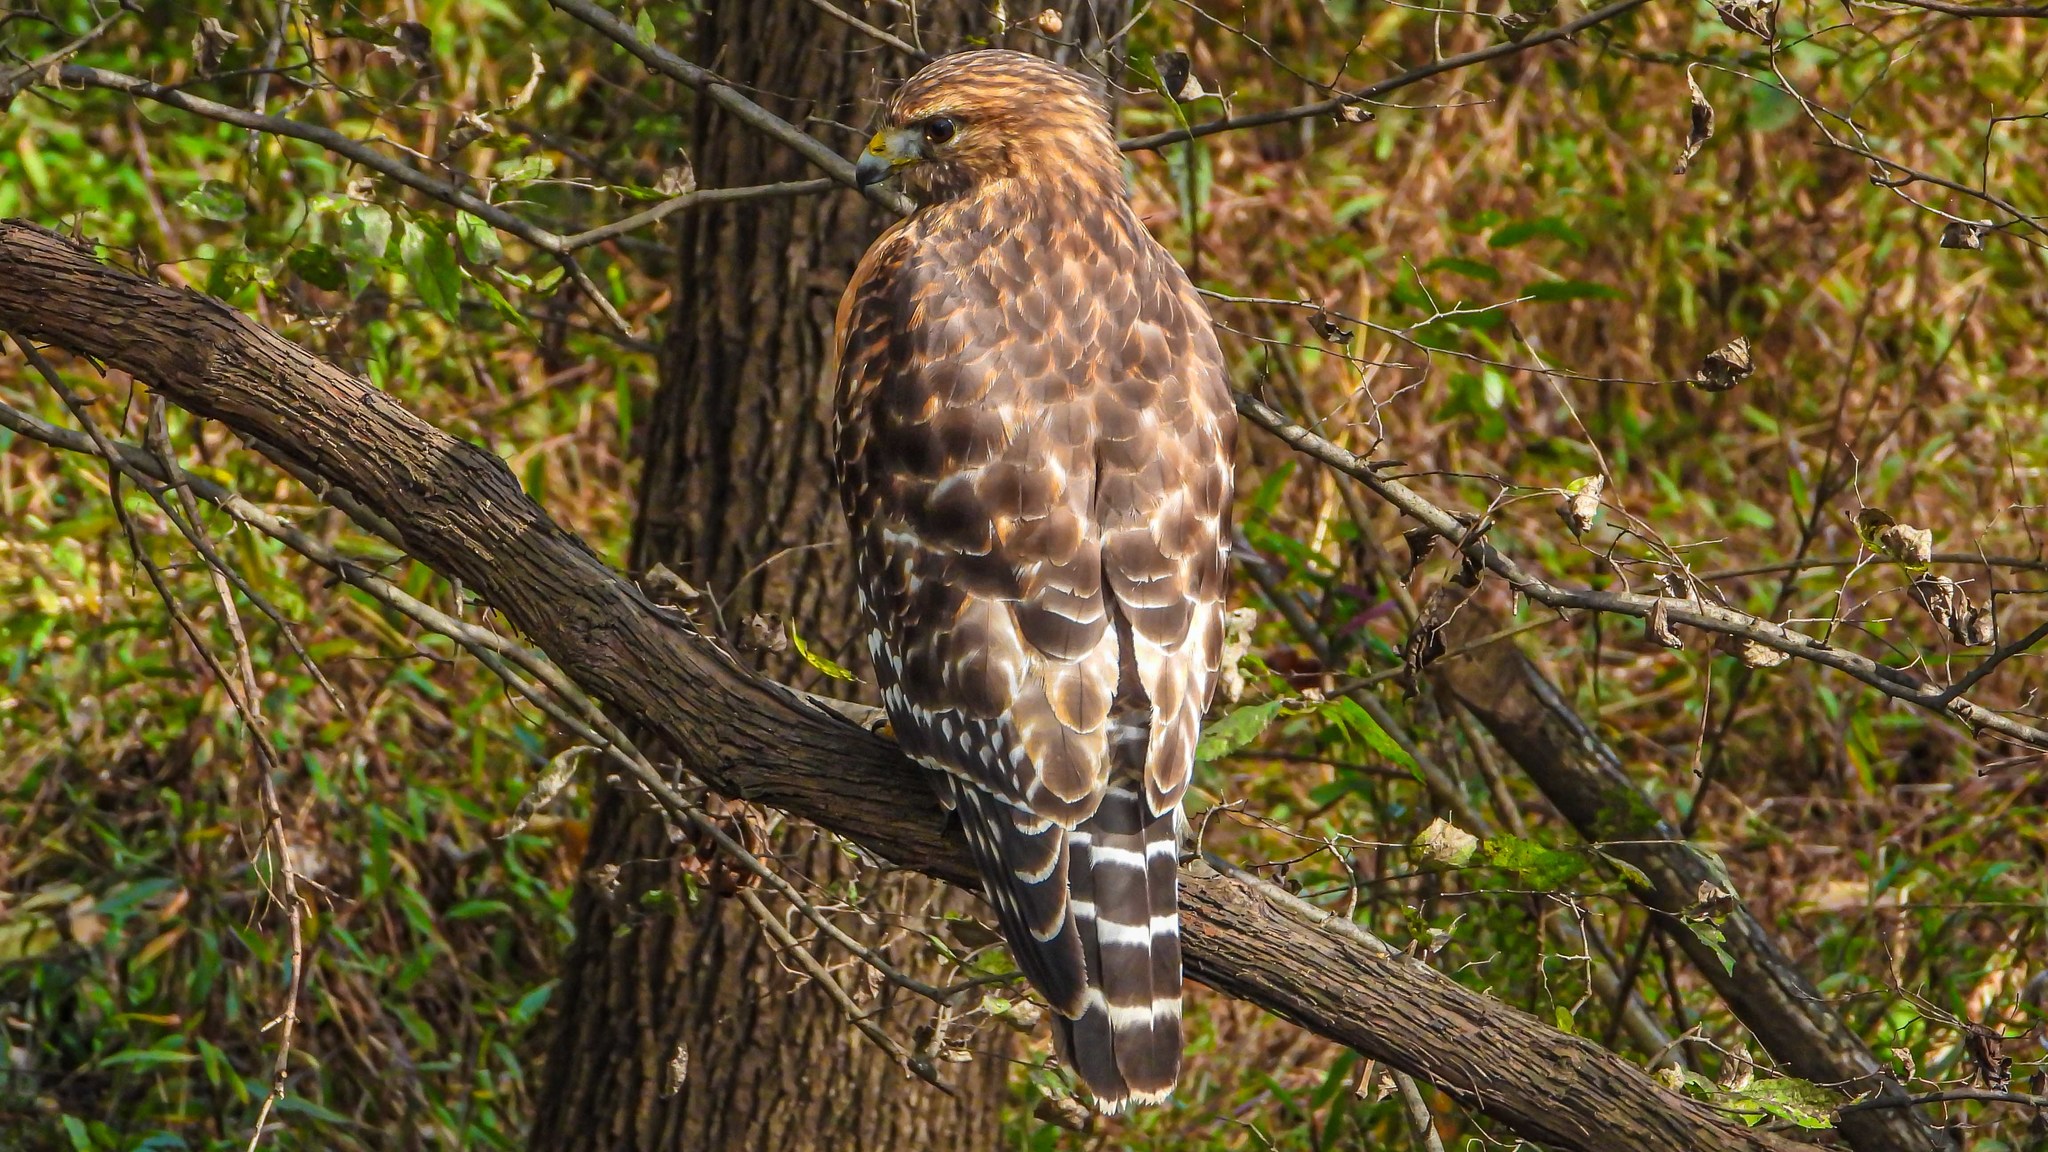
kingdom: Animalia
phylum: Chordata
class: Aves
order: Accipitriformes
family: Accipitridae
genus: Buteo
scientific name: Buteo lineatus
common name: Red-shouldered hawk
